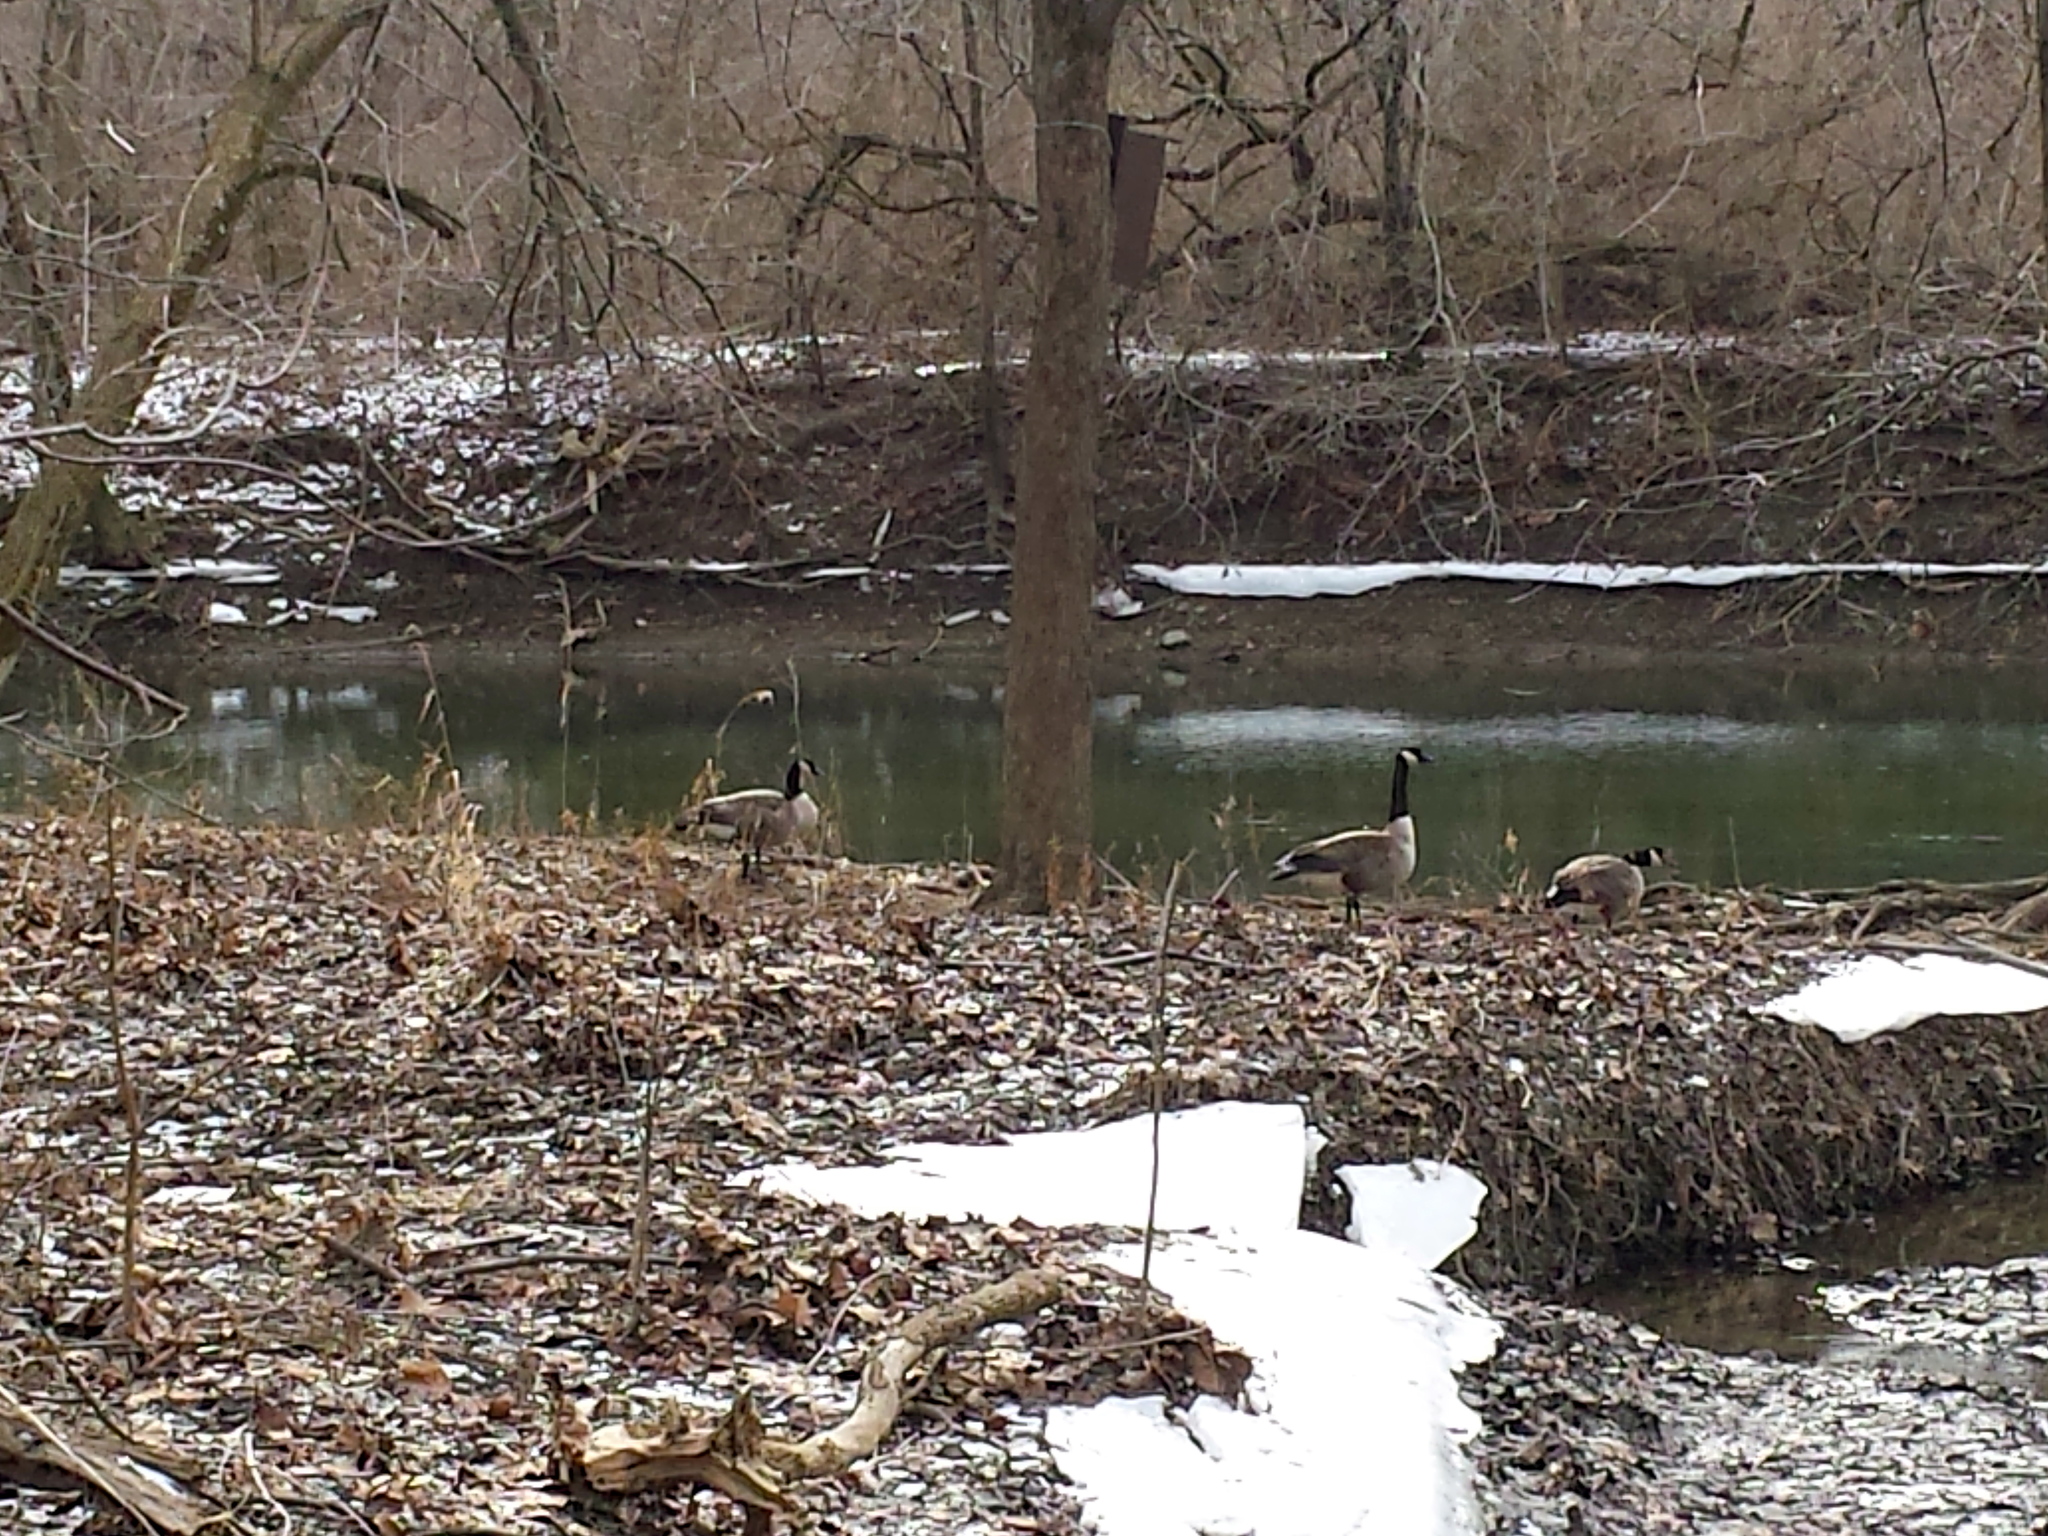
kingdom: Animalia
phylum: Chordata
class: Aves
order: Anseriformes
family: Anatidae
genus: Branta
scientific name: Branta canadensis
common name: Canada goose
